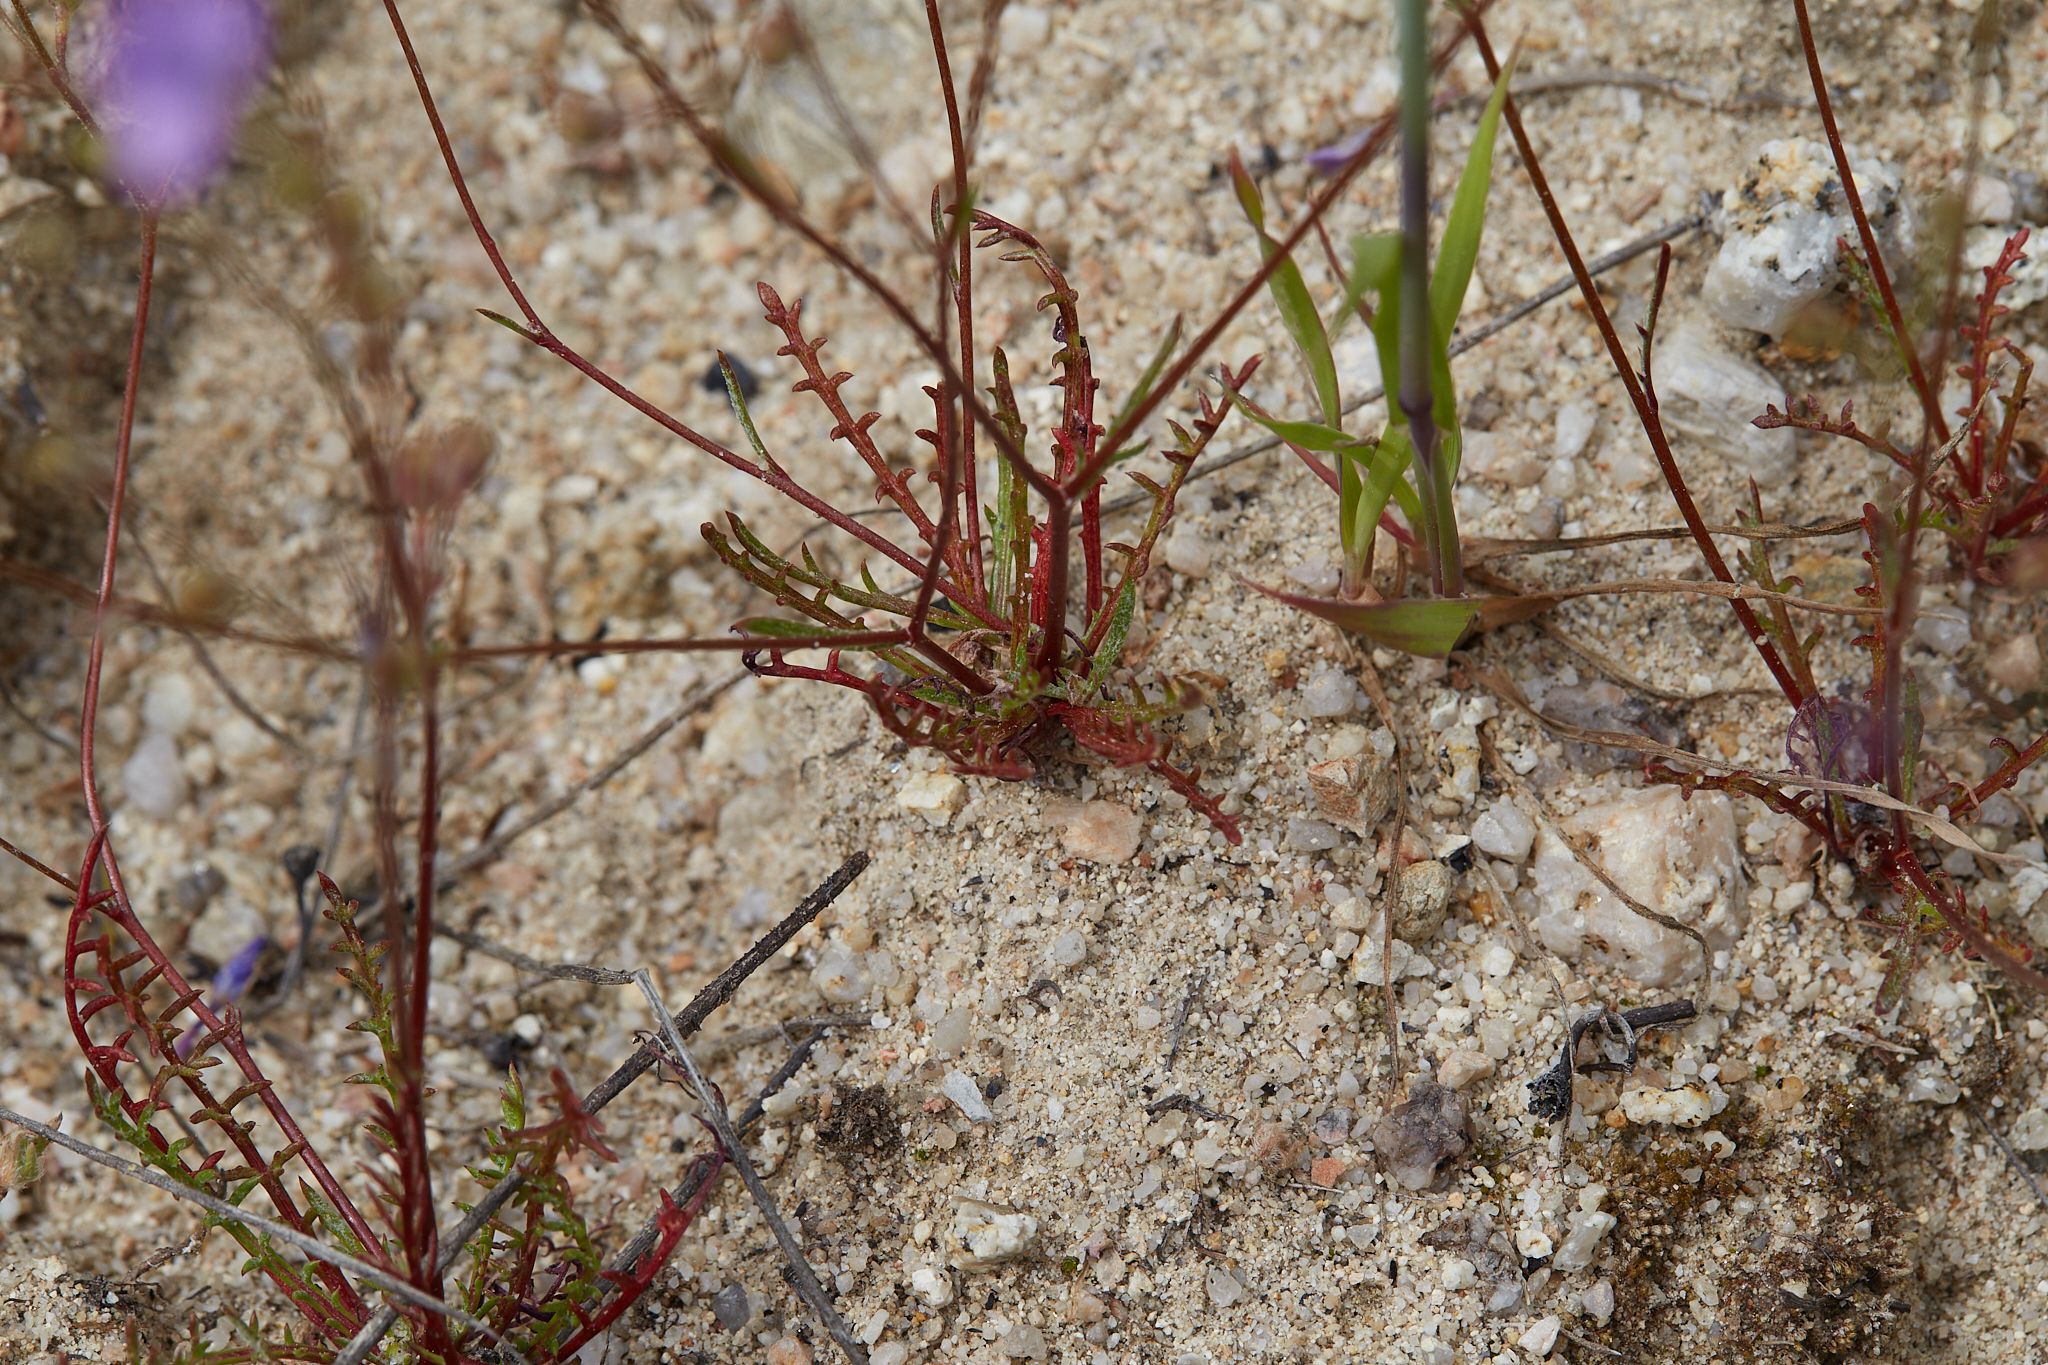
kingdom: Plantae
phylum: Tracheophyta
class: Magnoliopsida
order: Ericales
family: Polemoniaceae
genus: Gilia
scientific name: Gilia tenuiflora
